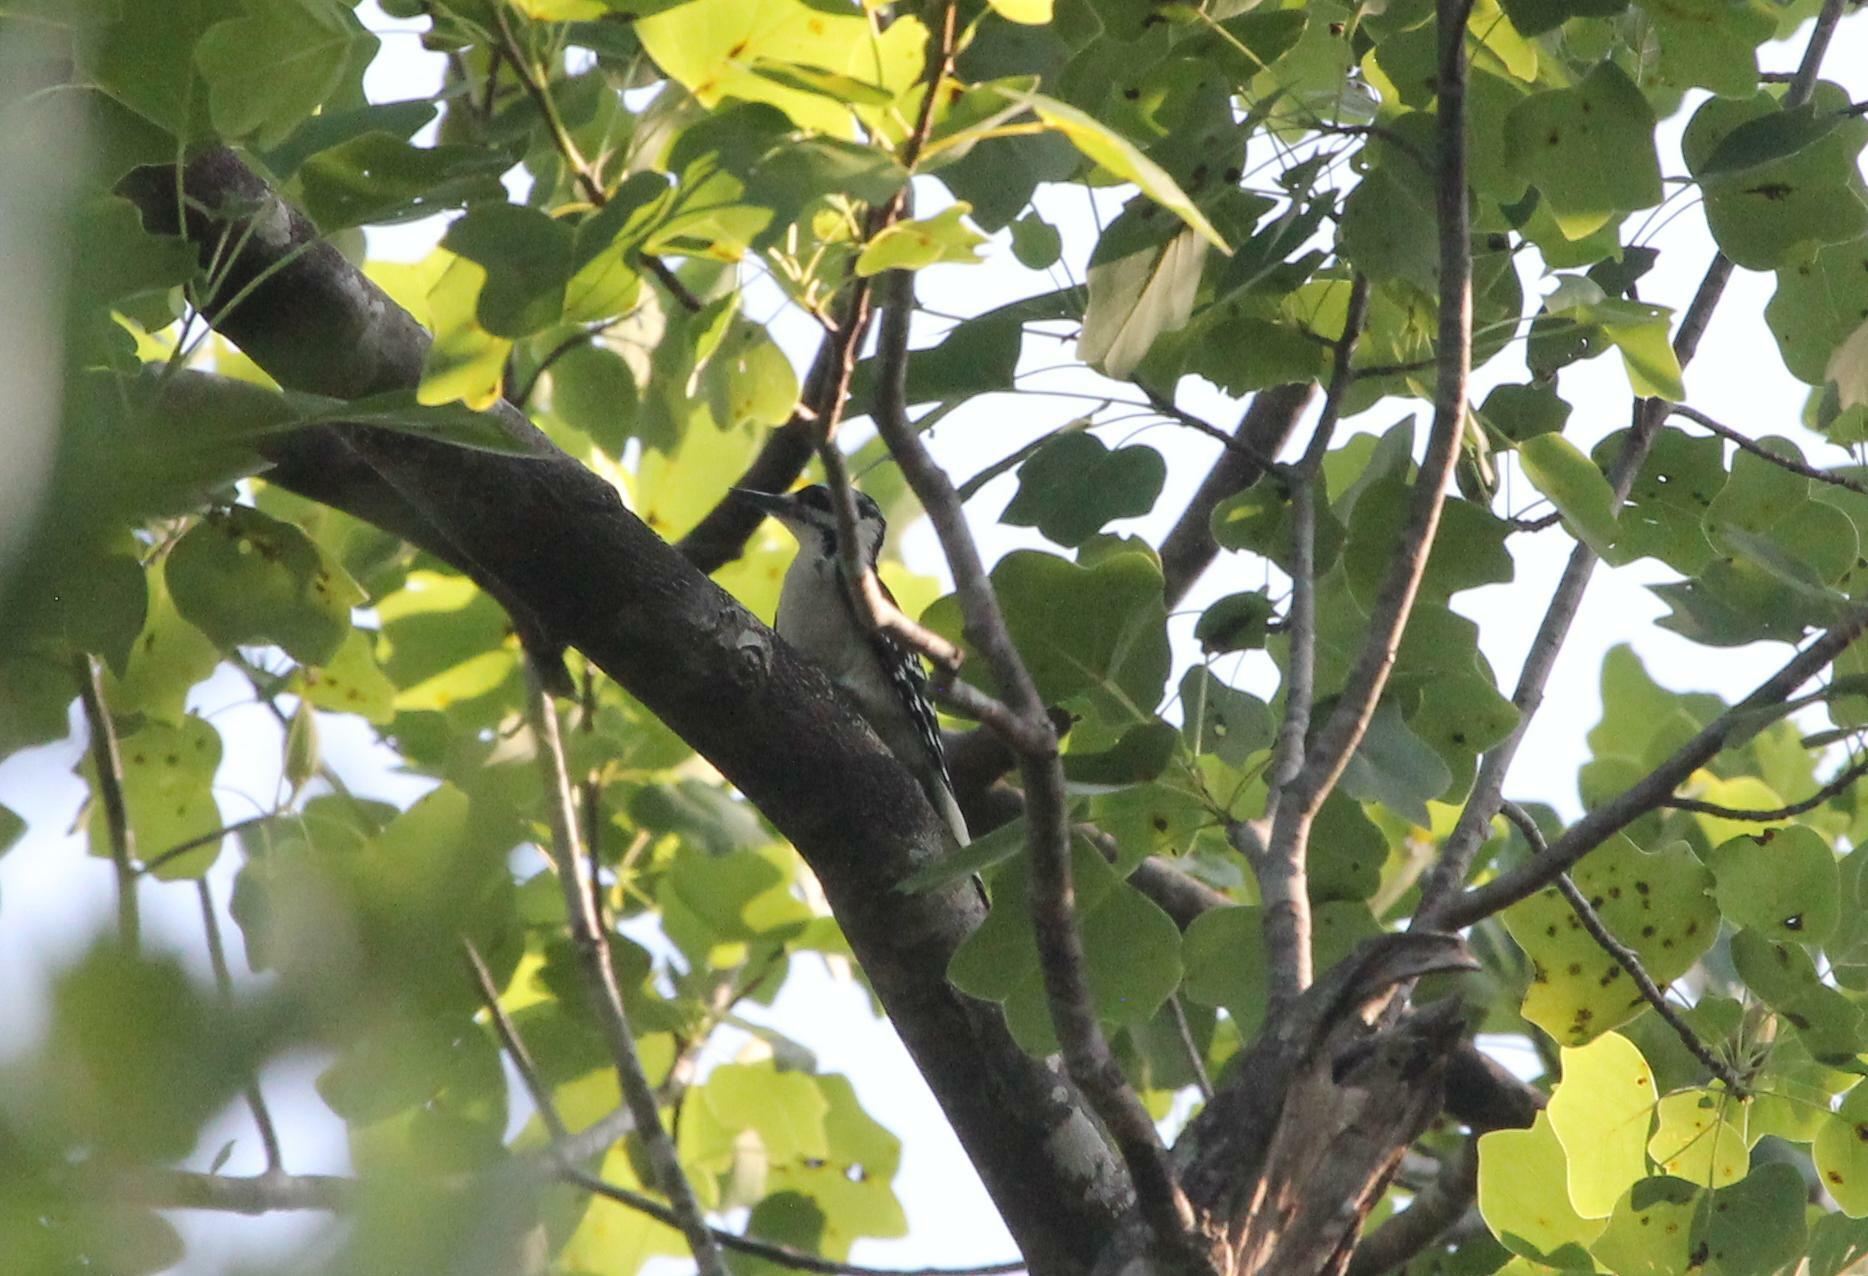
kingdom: Animalia
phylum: Chordata
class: Aves
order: Piciformes
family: Picidae
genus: Leuconotopicus
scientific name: Leuconotopicus villosus
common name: Hairy woodpecker
